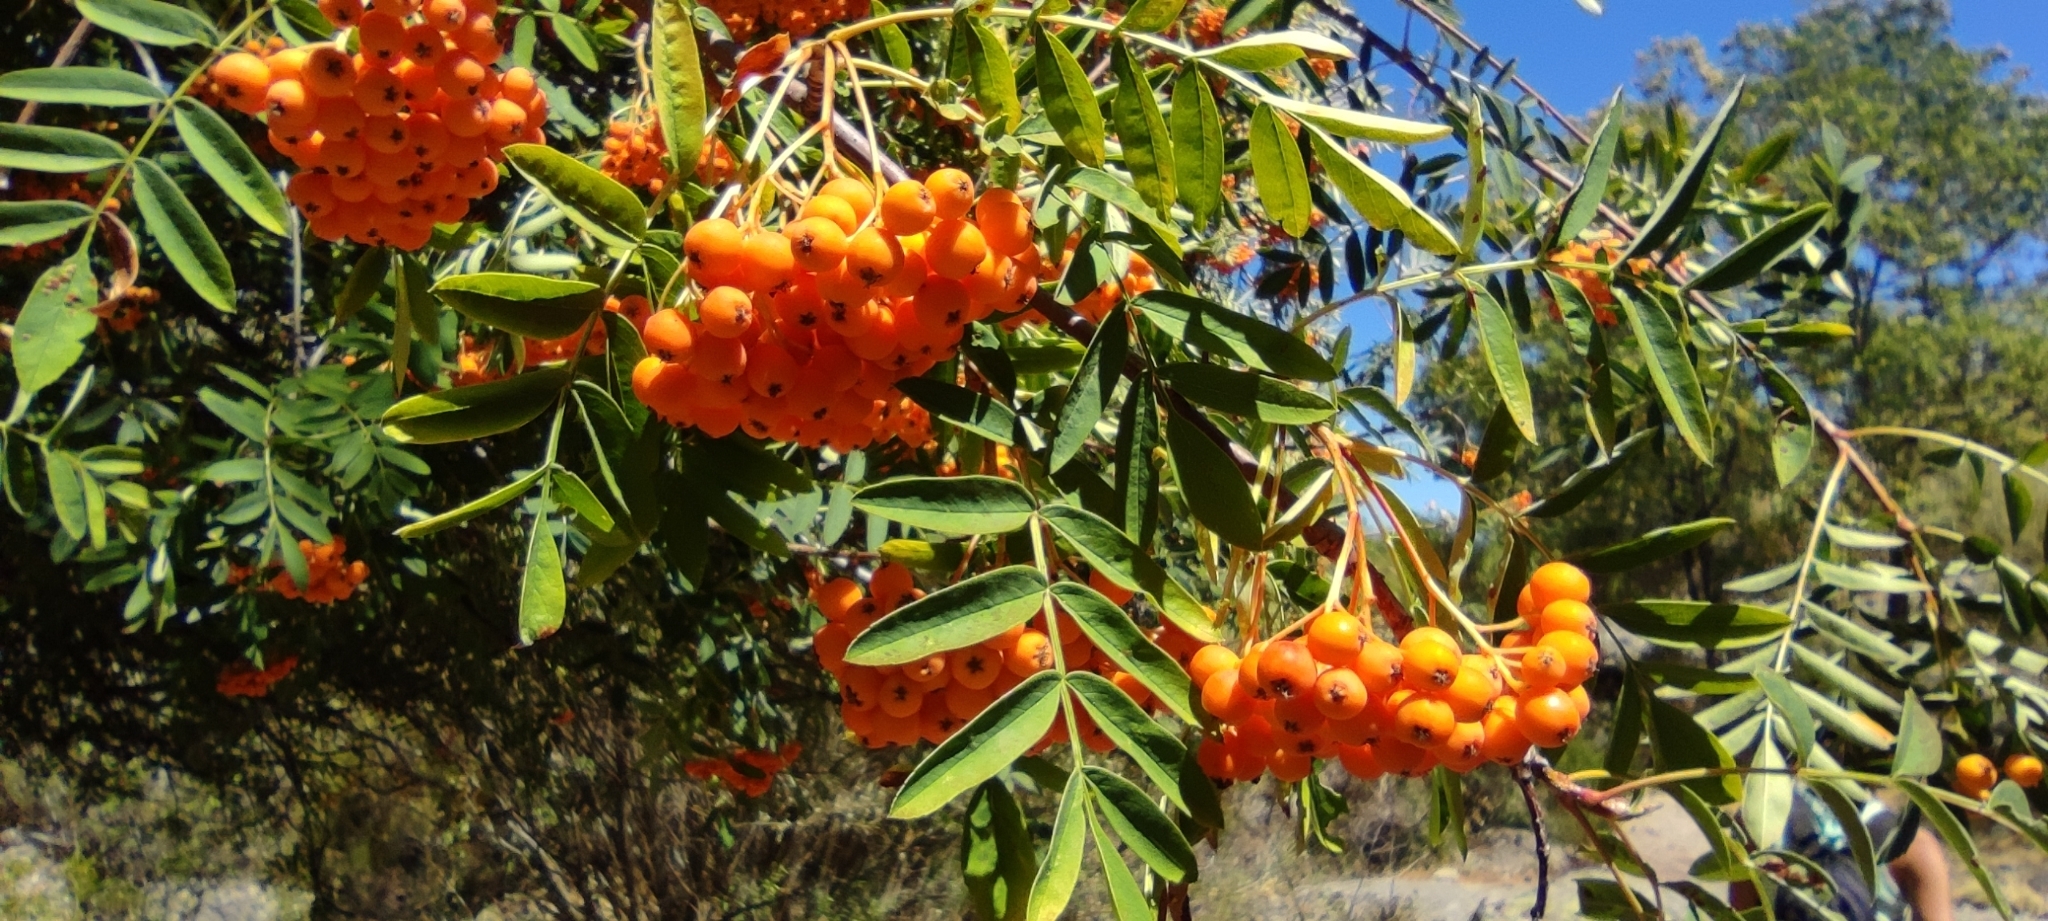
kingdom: Plantae
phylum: Tracheophyta
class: Magnoliopsida
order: Rosales
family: Rosaceae
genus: Sorbus
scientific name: Sorbus aucuparia
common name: Rowan
